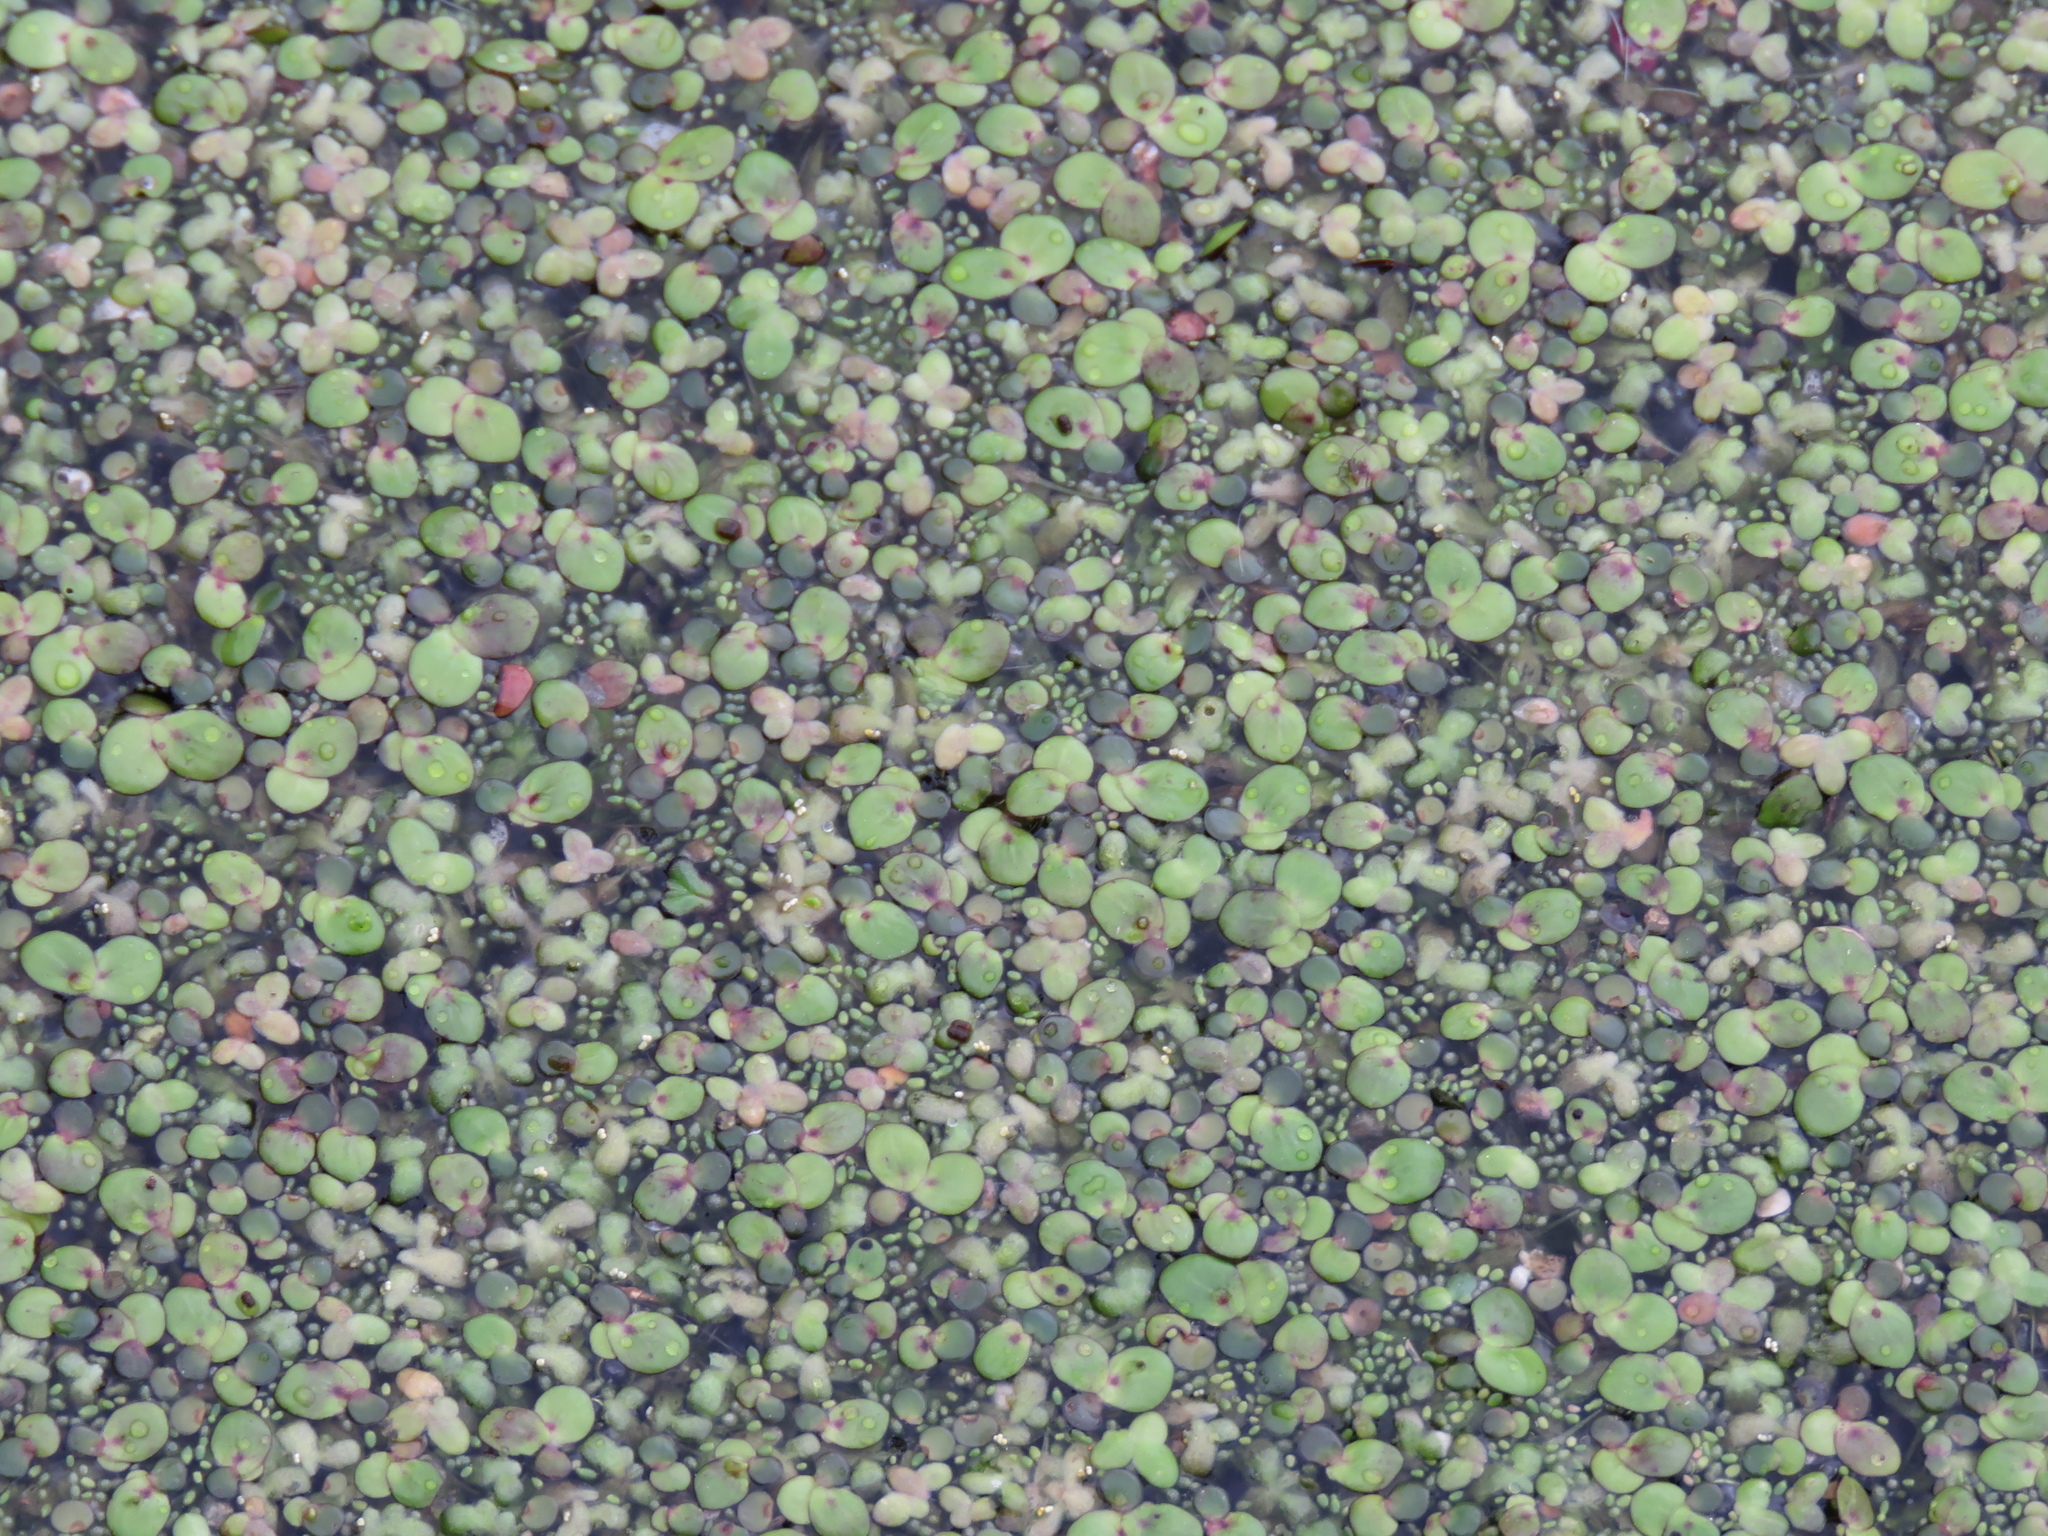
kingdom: Plantae
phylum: Tracheophyta
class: Liliopsida
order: Alismatales
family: Araceae
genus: Spirodela
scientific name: Spirodela polyrhiza
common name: Great duckweed
